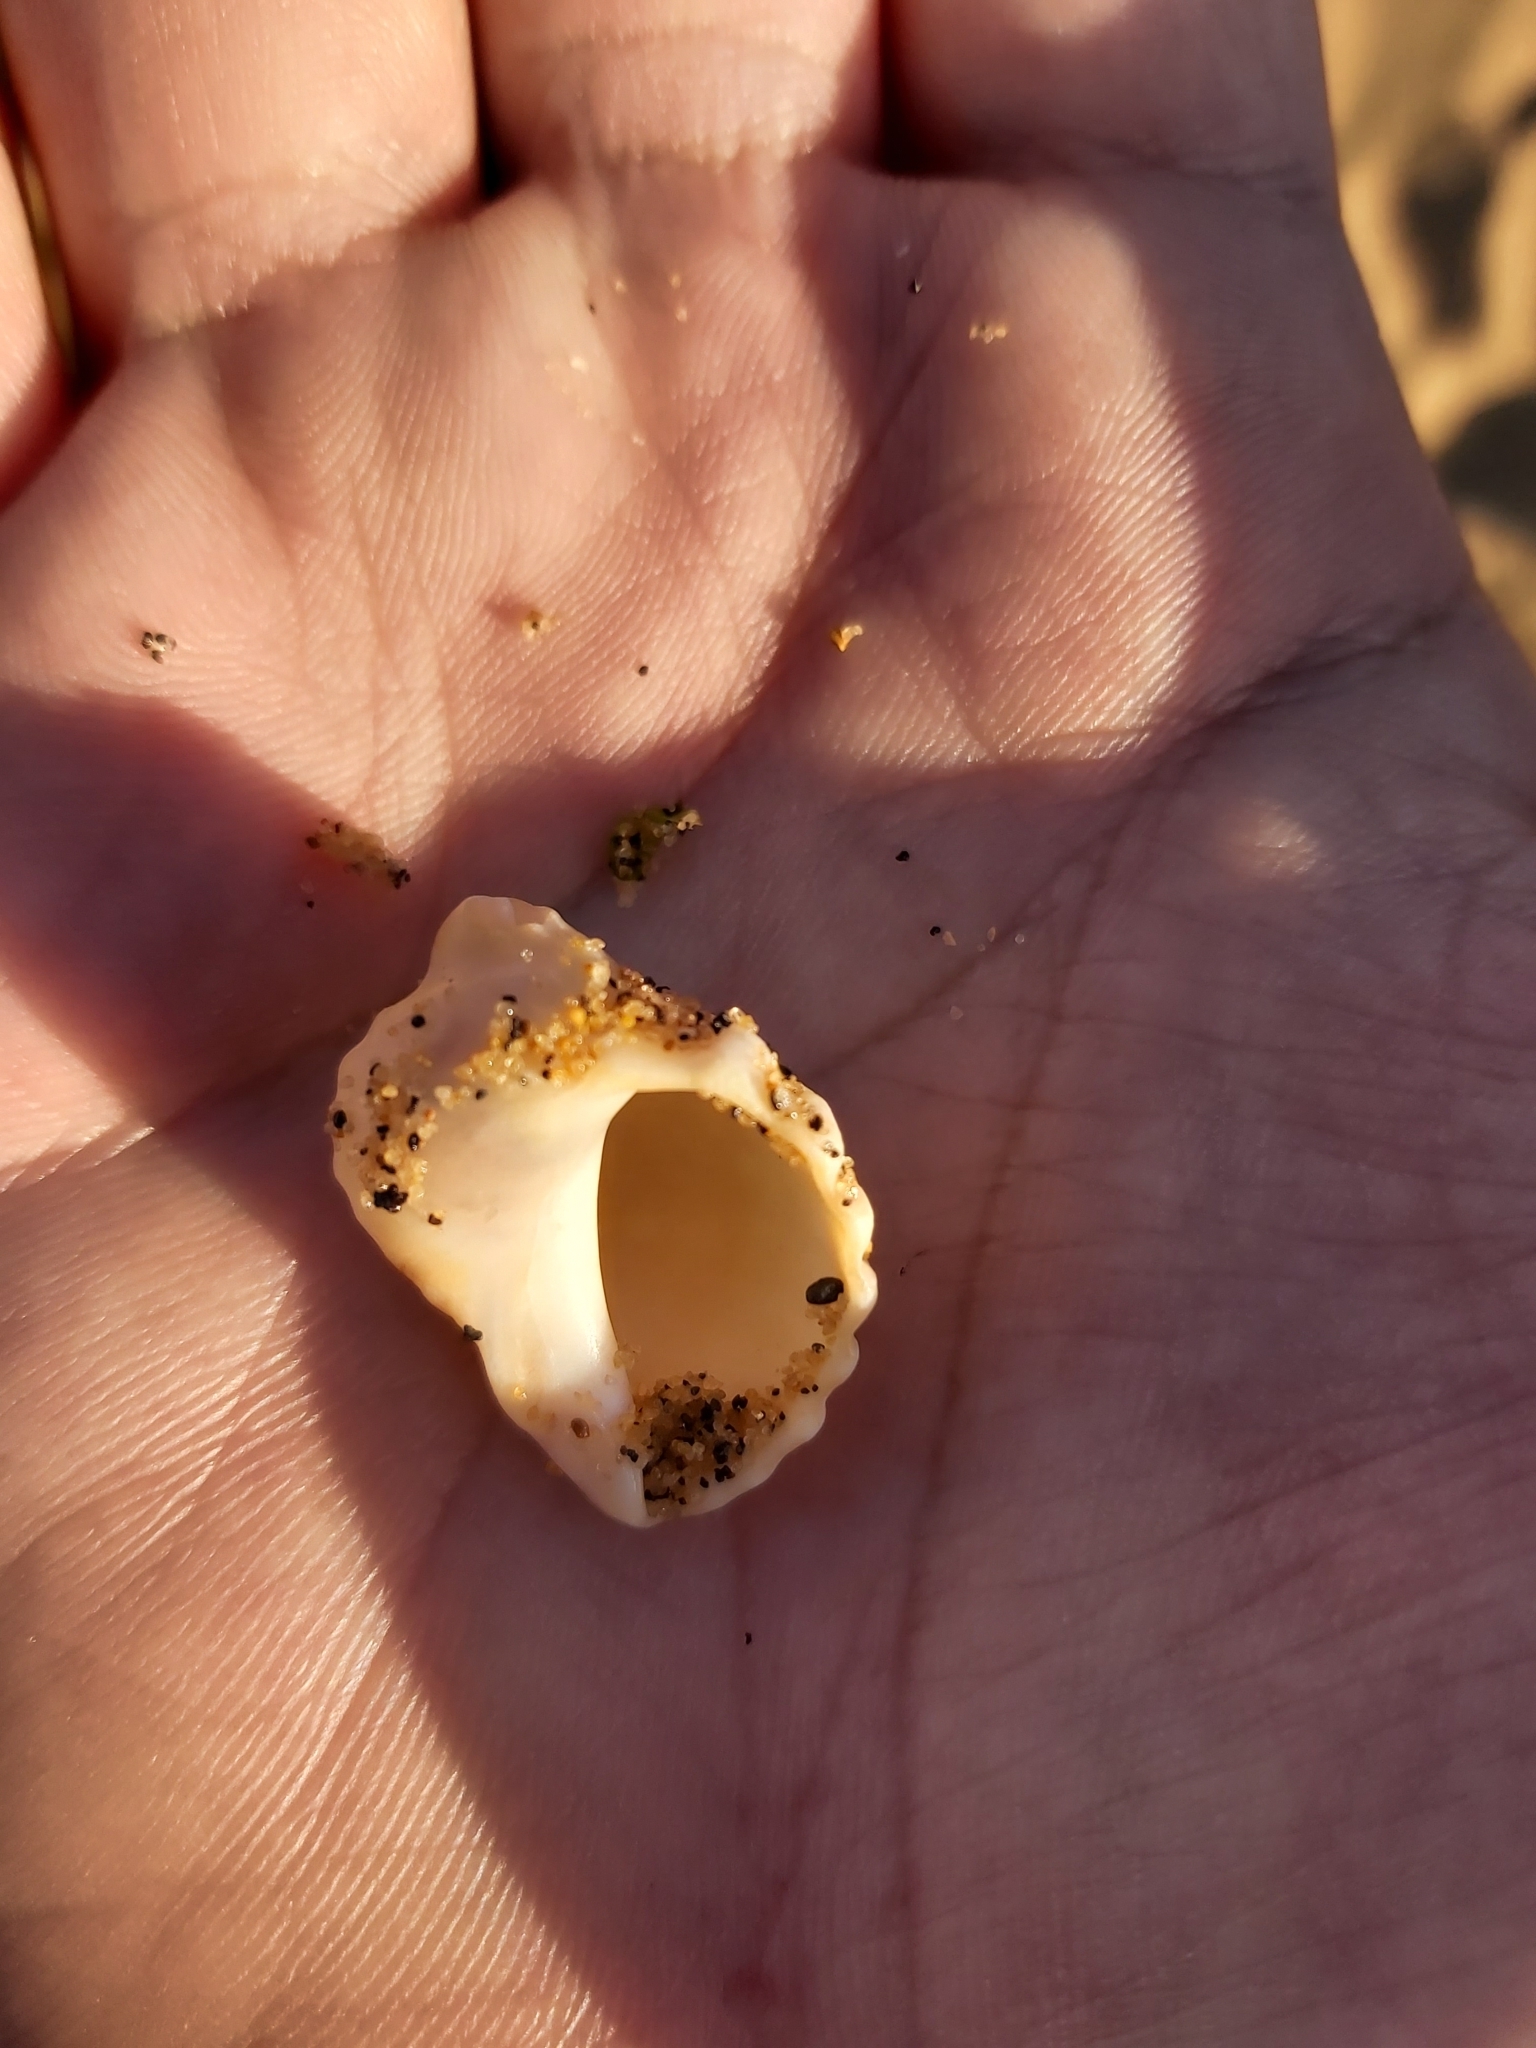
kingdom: Animalia
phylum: Mollusca
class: Gastropoda
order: Neogastropoda
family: Muricidae
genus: Dicathais
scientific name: Dicathais orbita
